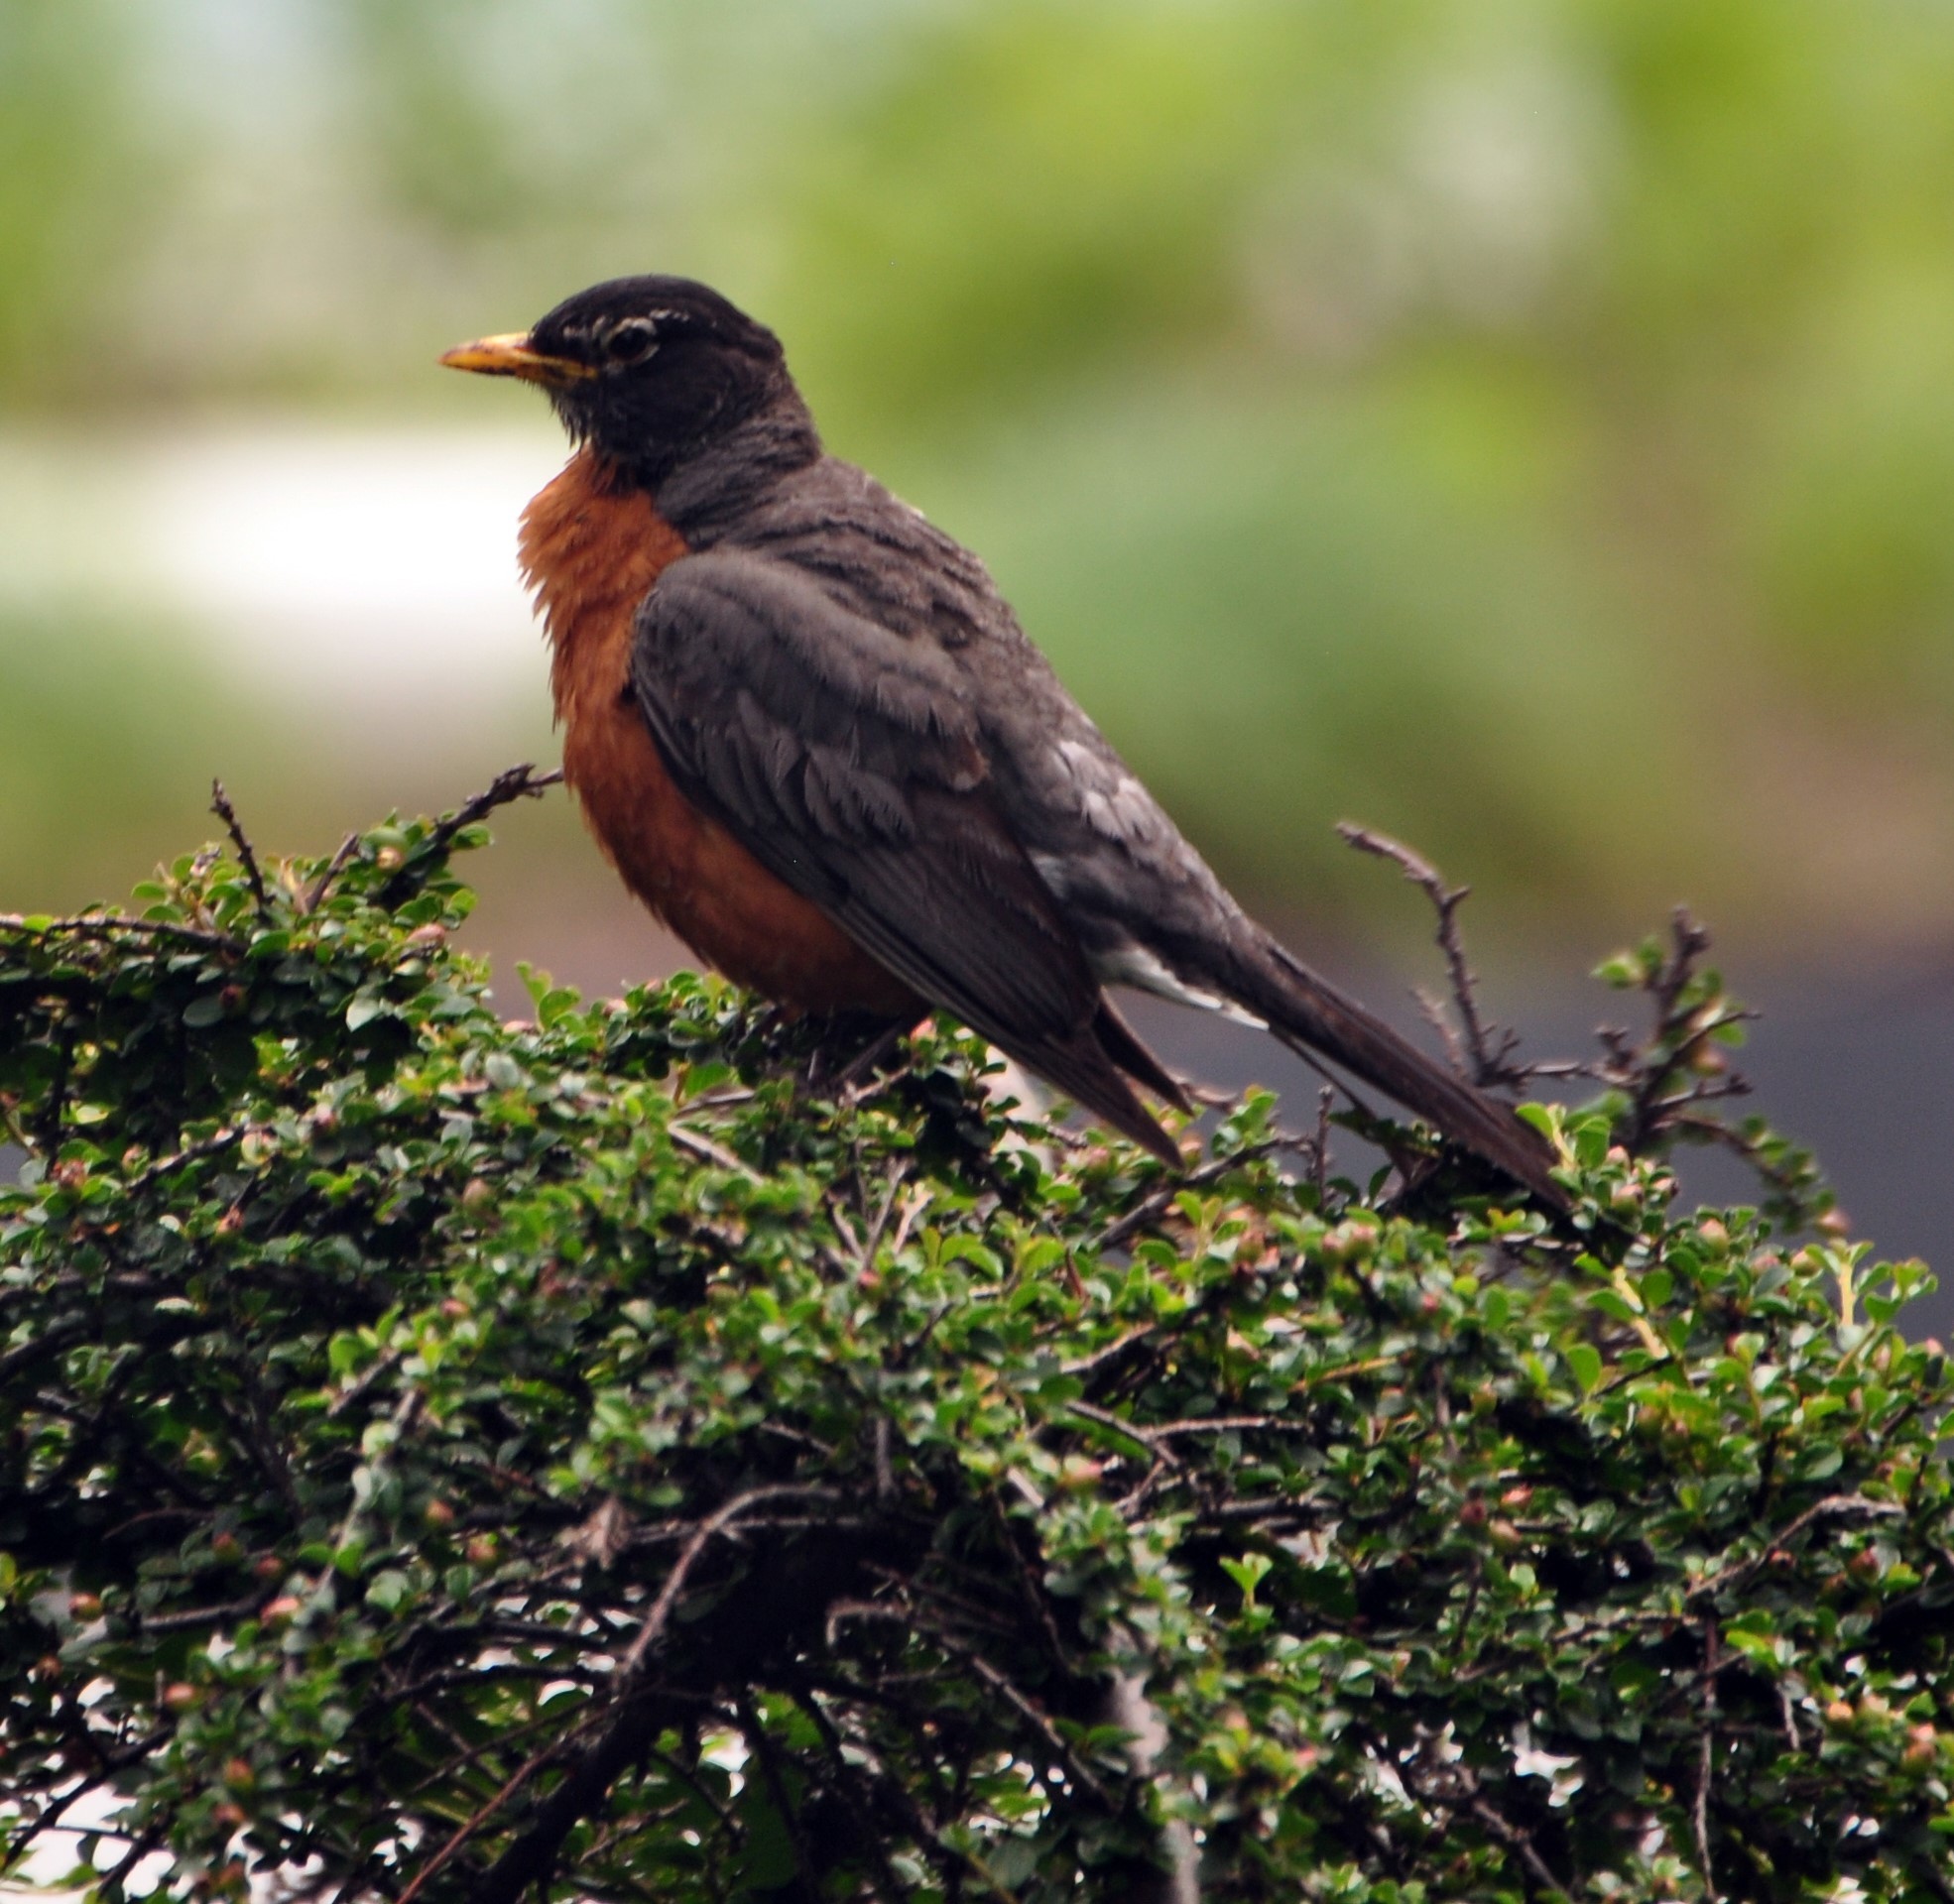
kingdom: Animalia
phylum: Chordata
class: Aves
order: Passeriformes
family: Turdidae
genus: Turdus
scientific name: Turdus migratorius
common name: American robin
